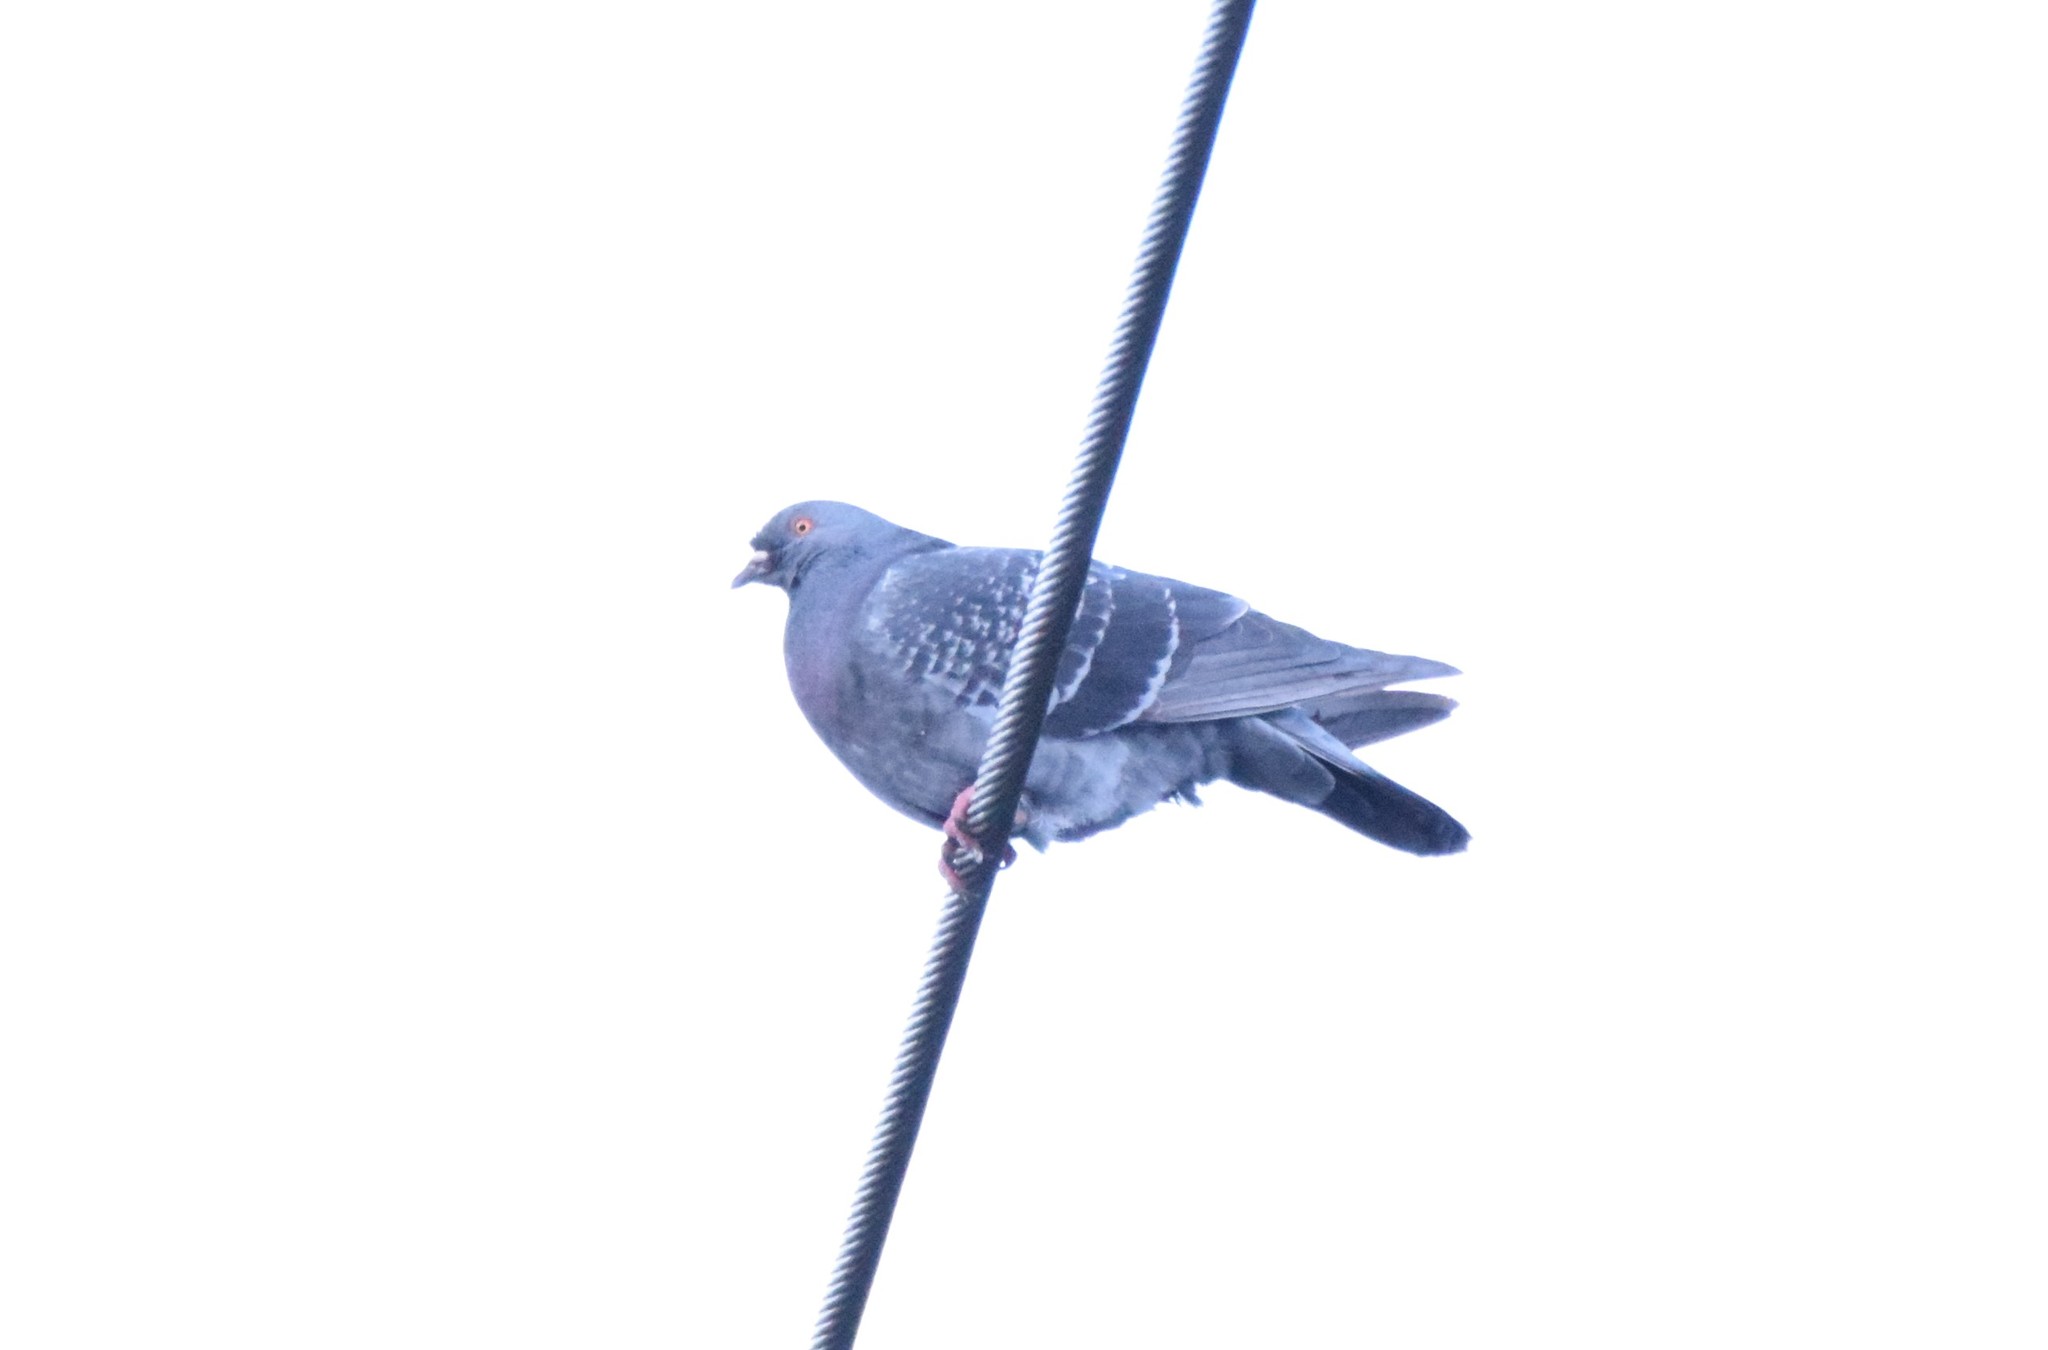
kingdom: Animalia
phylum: Chordata
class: Aves
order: Columbiformes
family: Columbidae
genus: Columba
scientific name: Columba livia
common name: Rock pigeon
